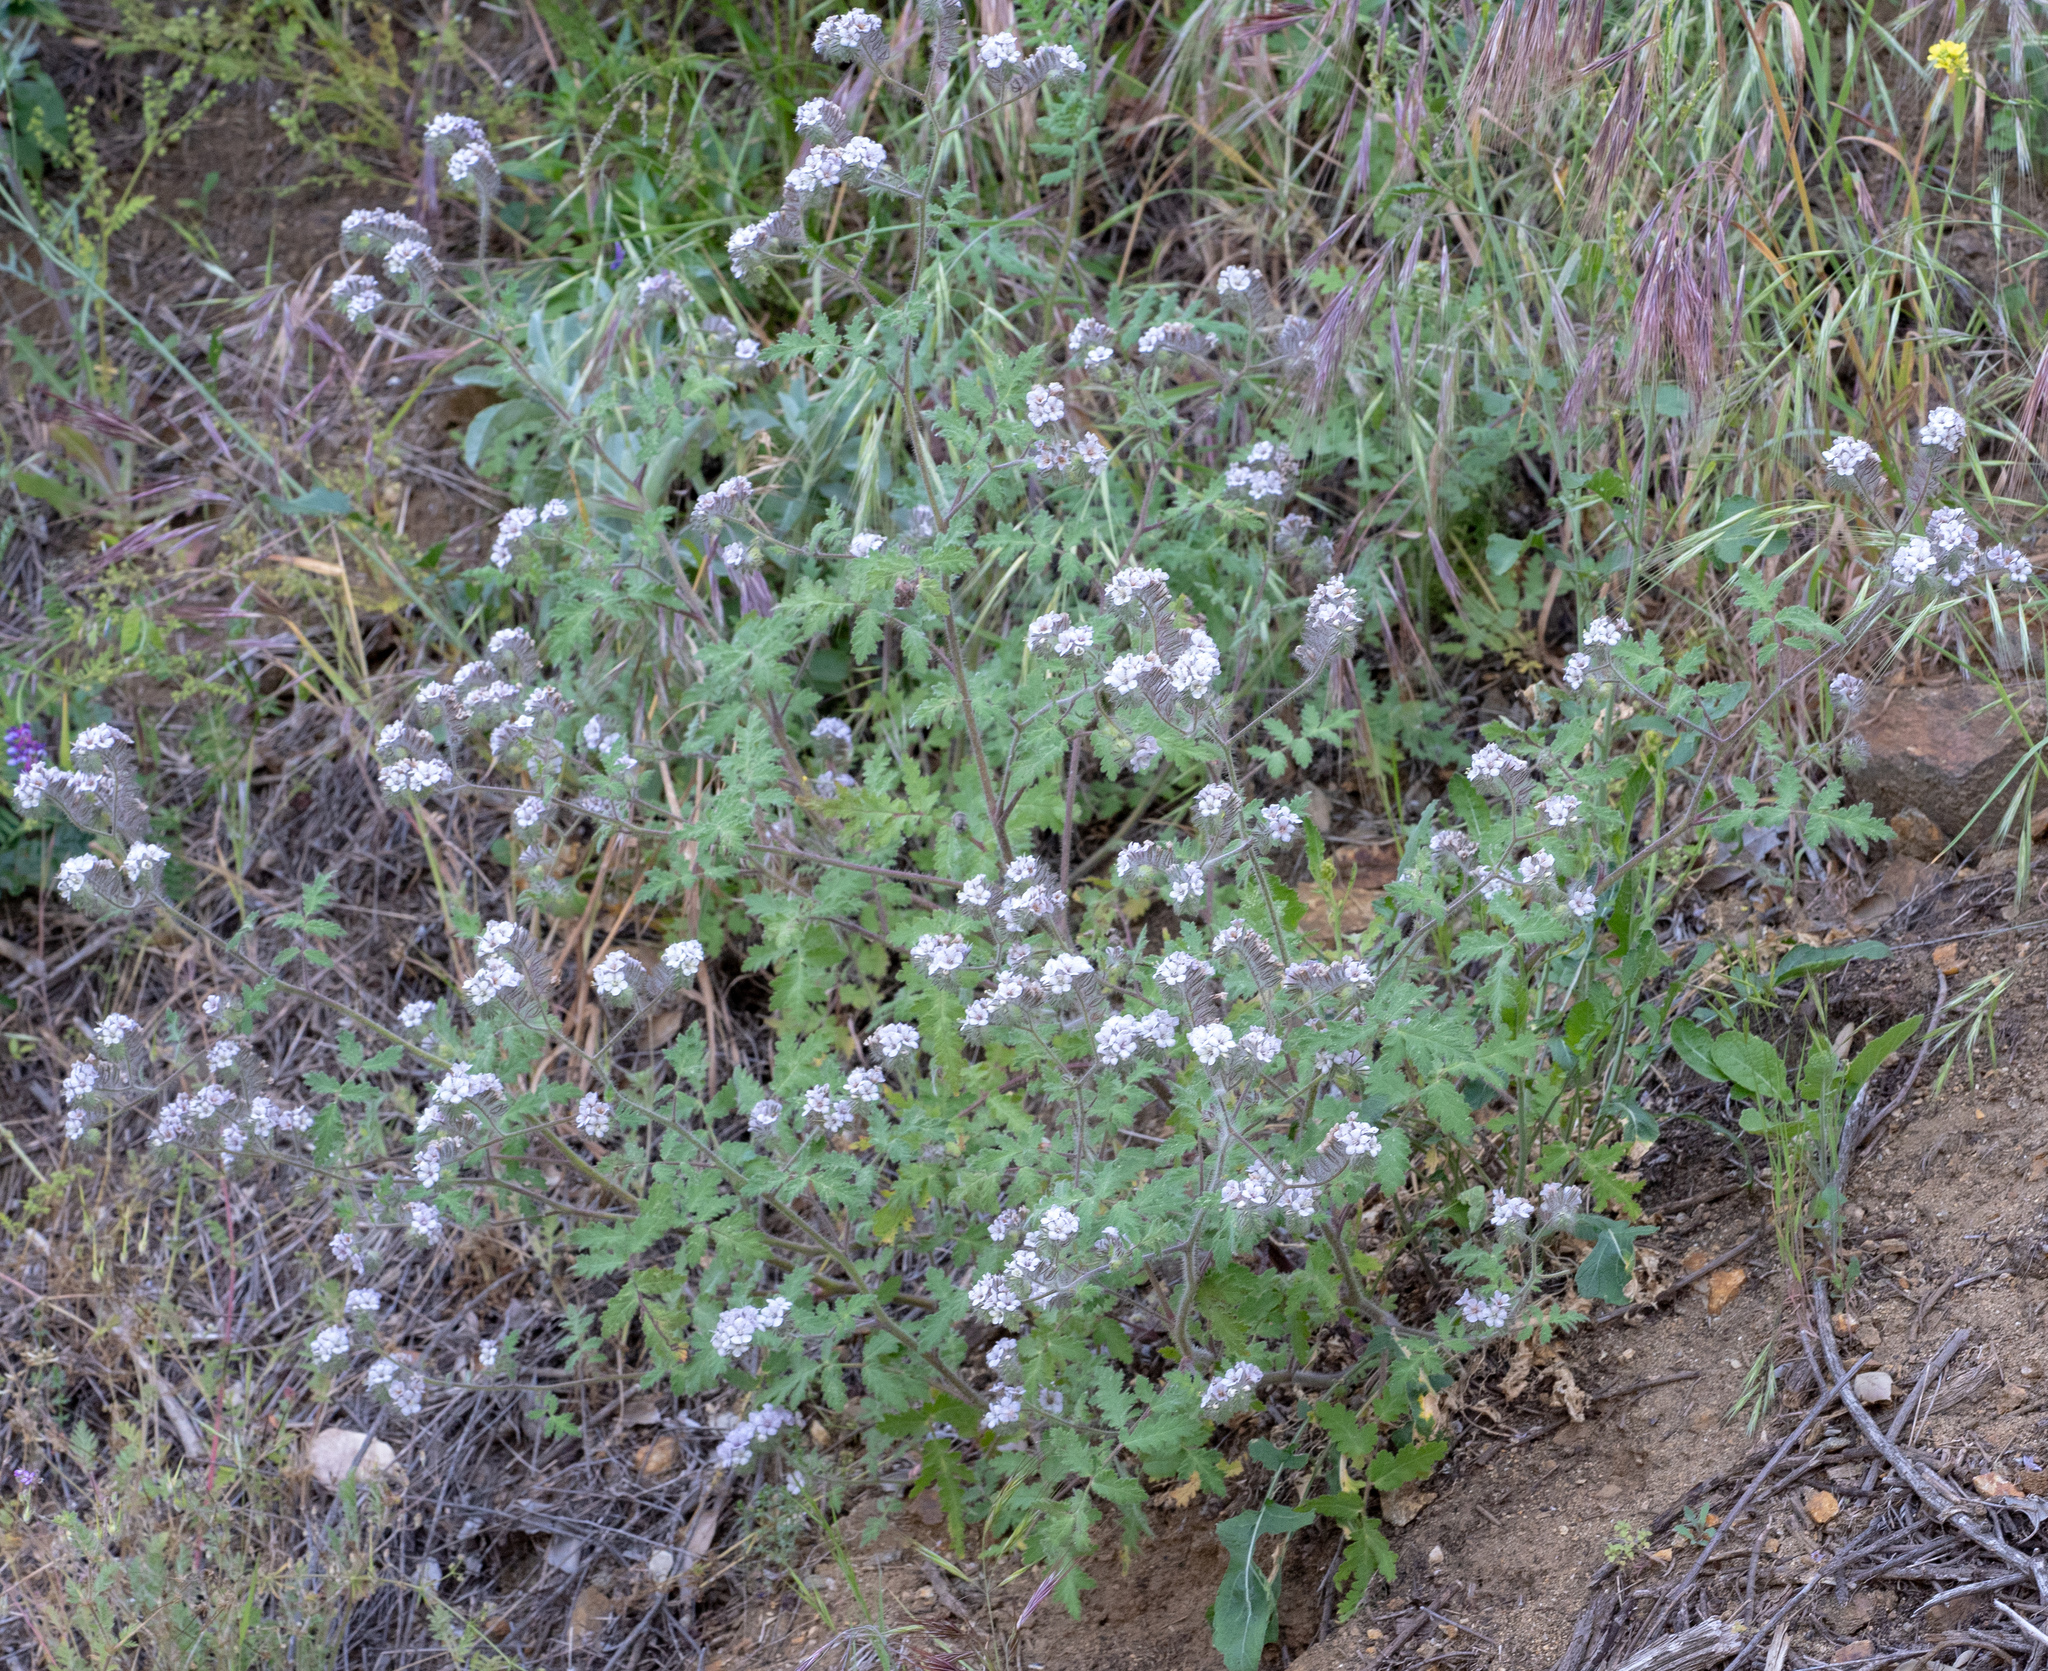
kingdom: Plantae
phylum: Tracheophyta
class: Magnoliopsida
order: Boraginales
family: Hydrophyllaceae
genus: Phacelia
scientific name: Phacelia cicutaria
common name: Caterpillar phacelia
